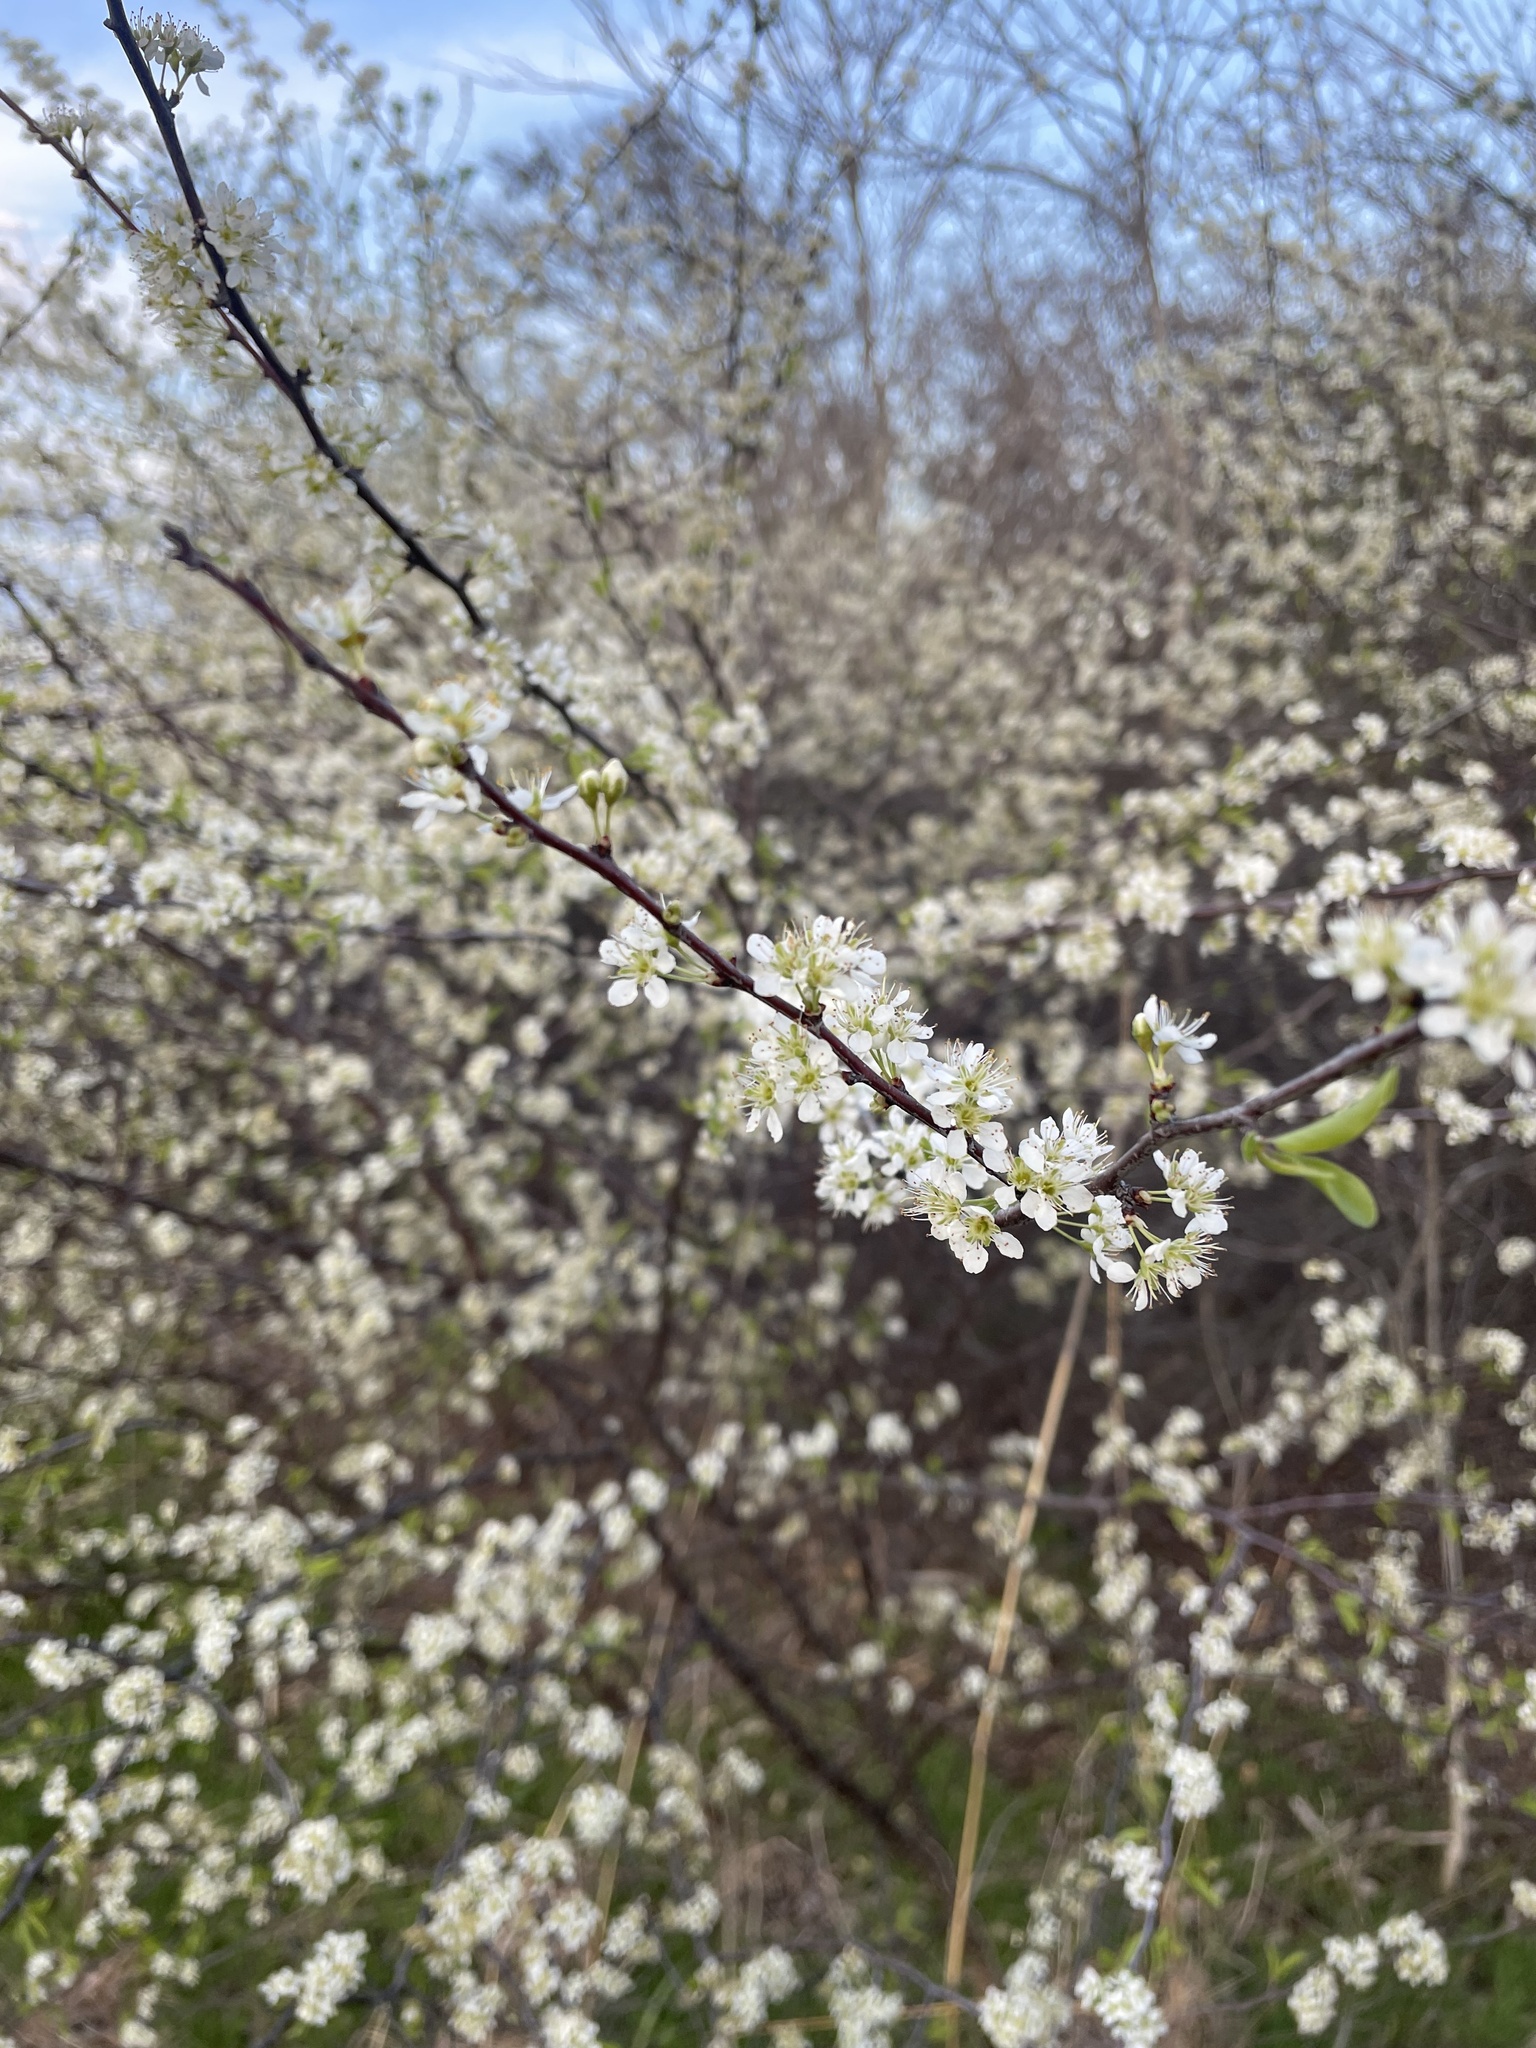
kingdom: Plantae
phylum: Tracheophyta
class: Magnoliopsida
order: Rosales
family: Rosaceae
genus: Prunus
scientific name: Prunus angustifolia
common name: Cherokee plum
